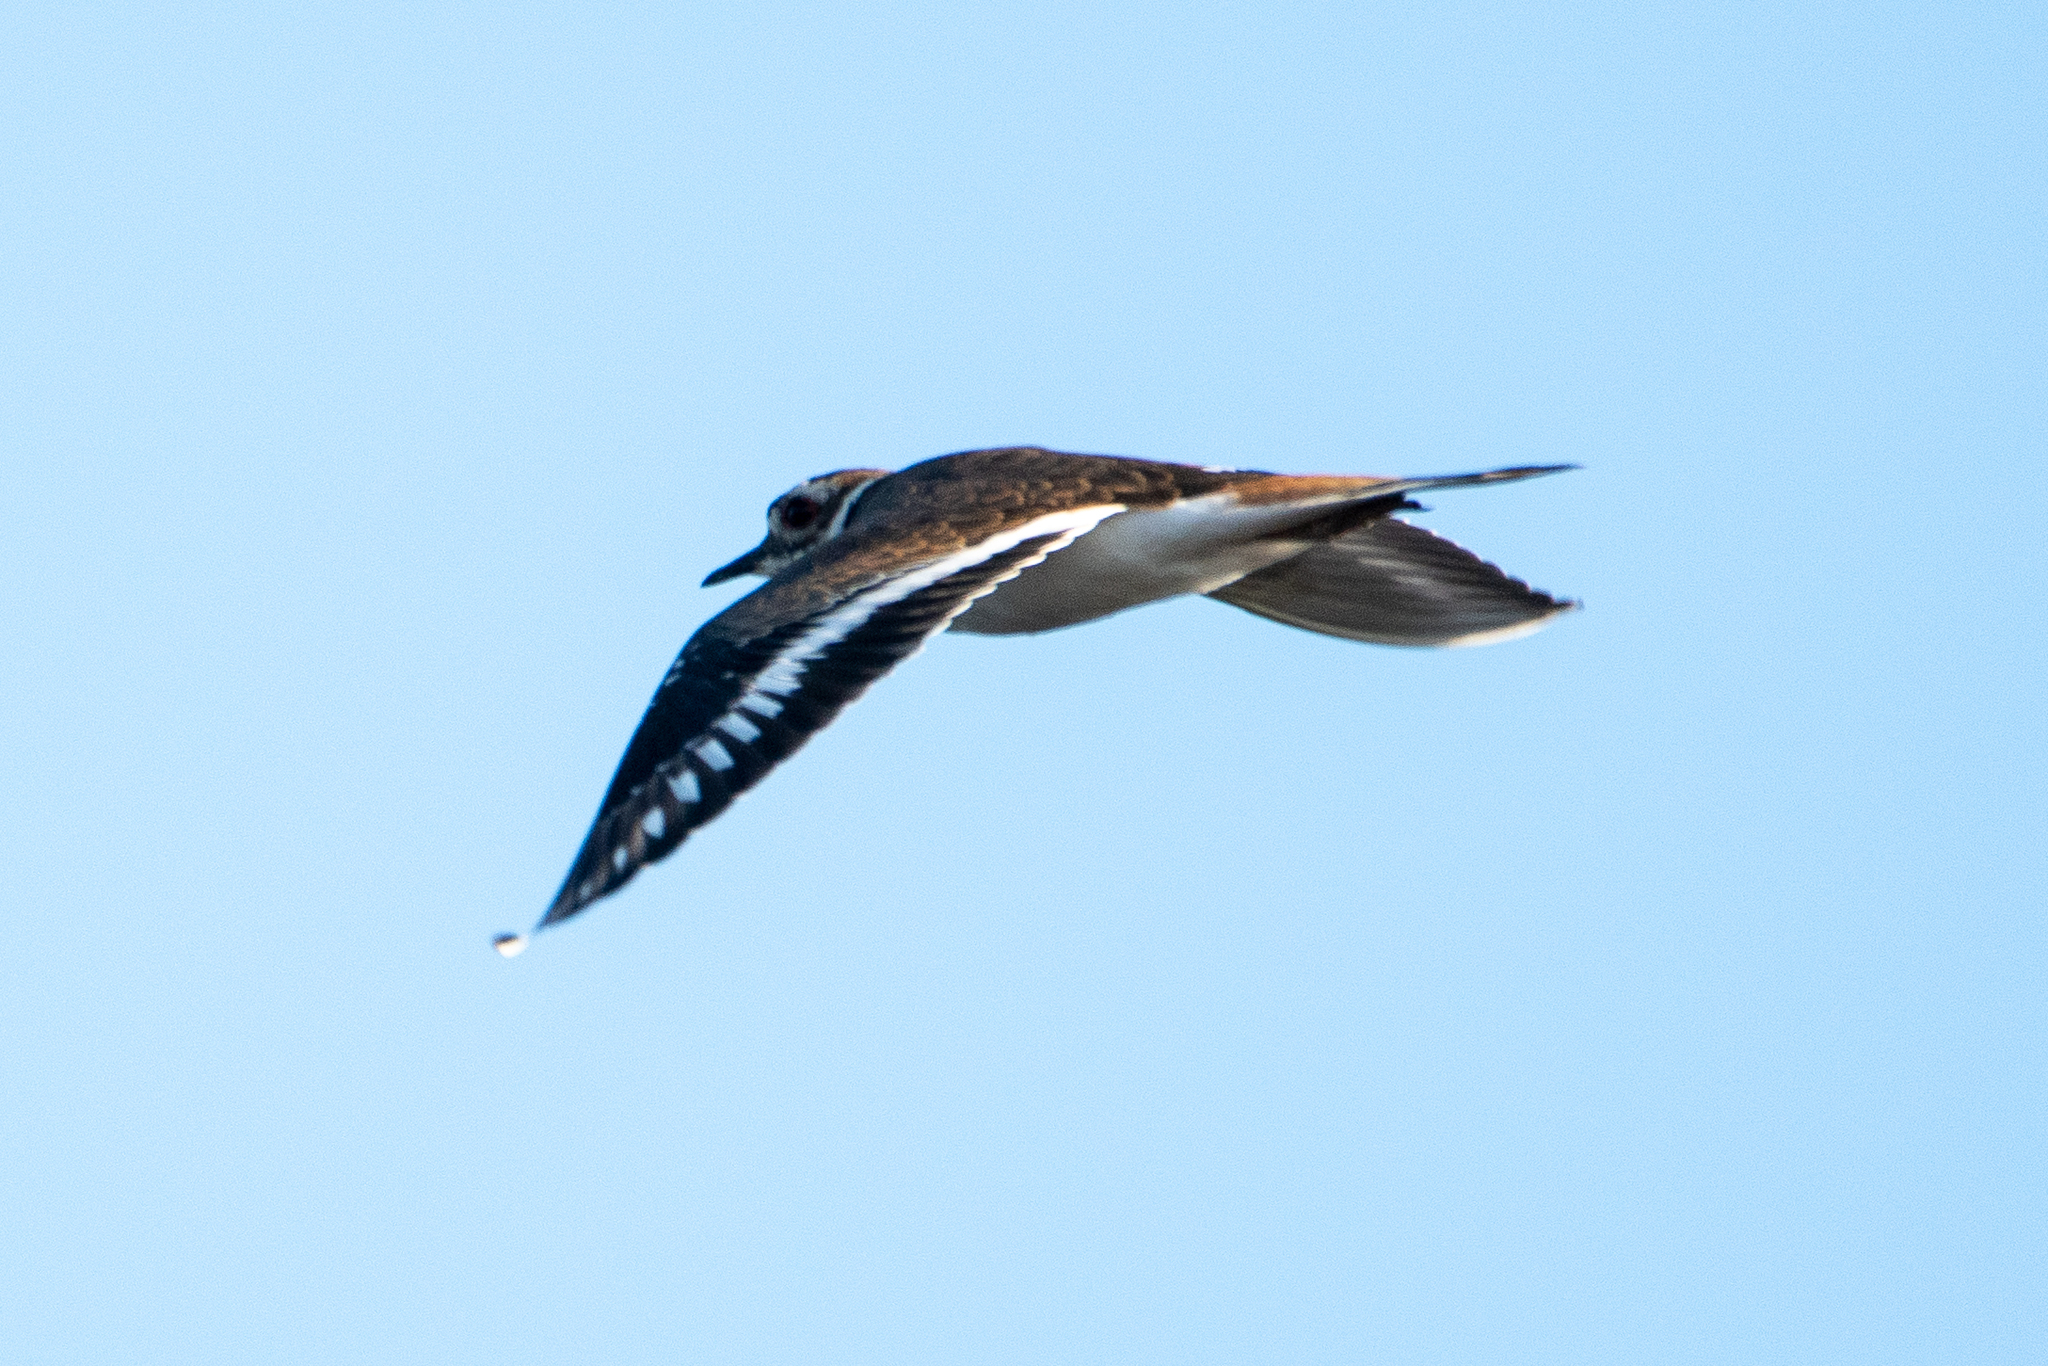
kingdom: Animalia
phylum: Chordata
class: Aves
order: Charadriiformes
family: Charadriidae
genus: Charadrius
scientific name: Charadrius vociferus
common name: Killdeer
